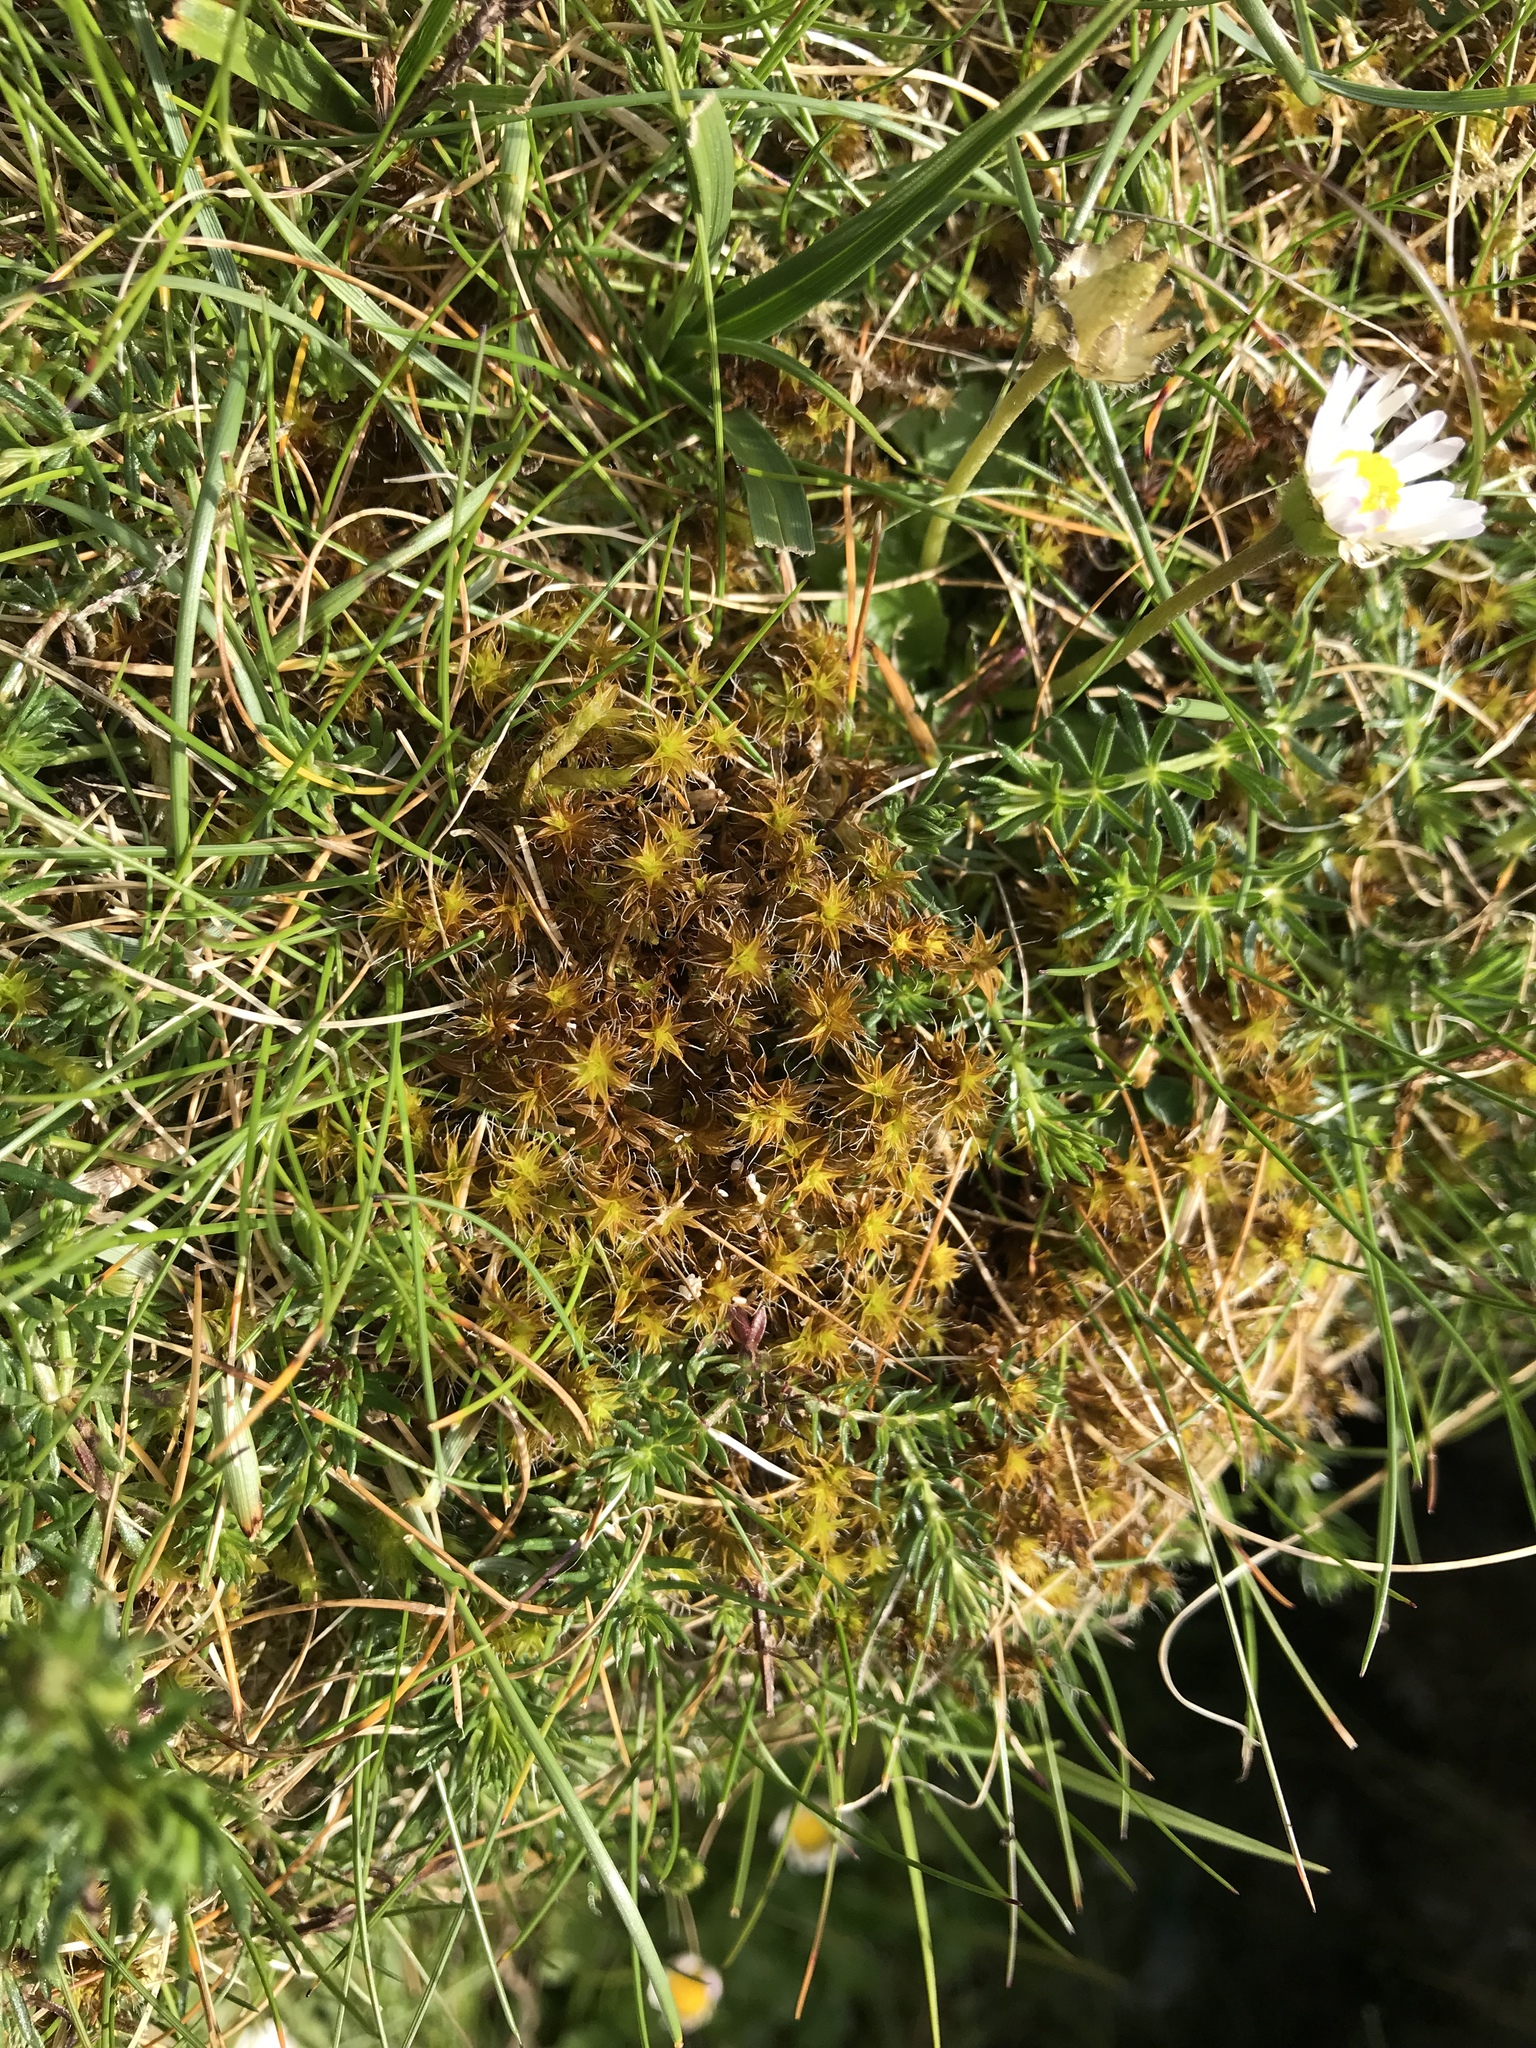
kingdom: Plantae
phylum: Bryophyta
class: Bryopsida
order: Pottiales
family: Pottiaceae
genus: Syntrichia
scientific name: Syntrichia ruralis
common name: Sidewalk screw moss
